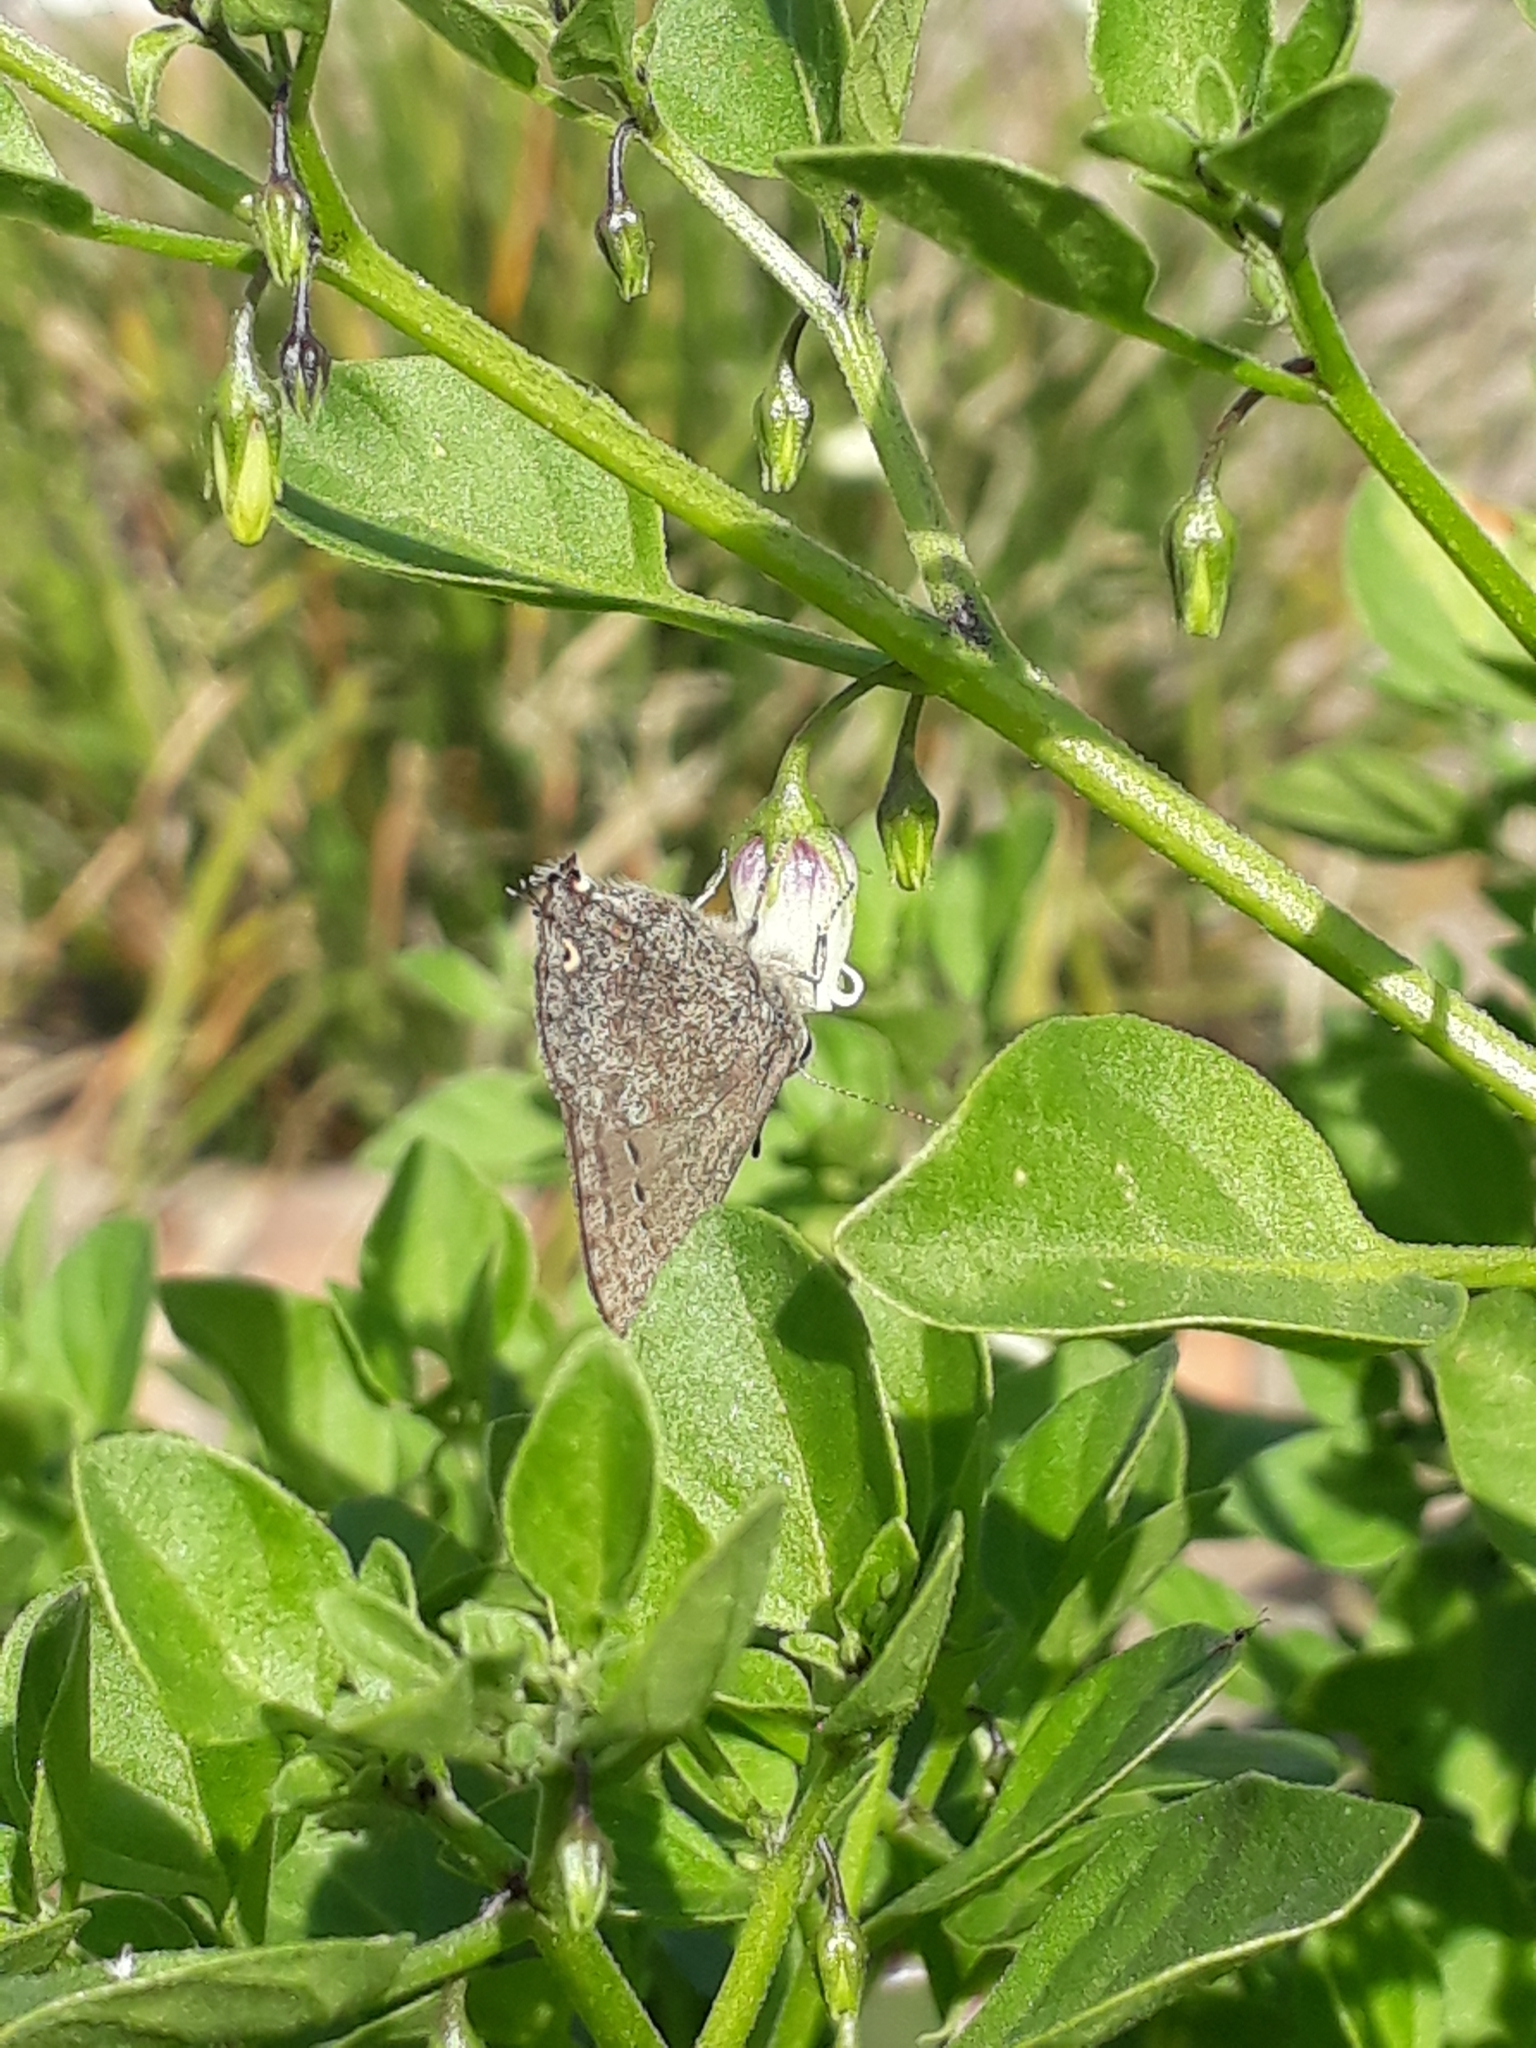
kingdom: Animalia
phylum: Arthropoda
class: Insecta
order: Lepidoptera
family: Lycaenidae
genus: Strymon
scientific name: Strymon eurytulus
